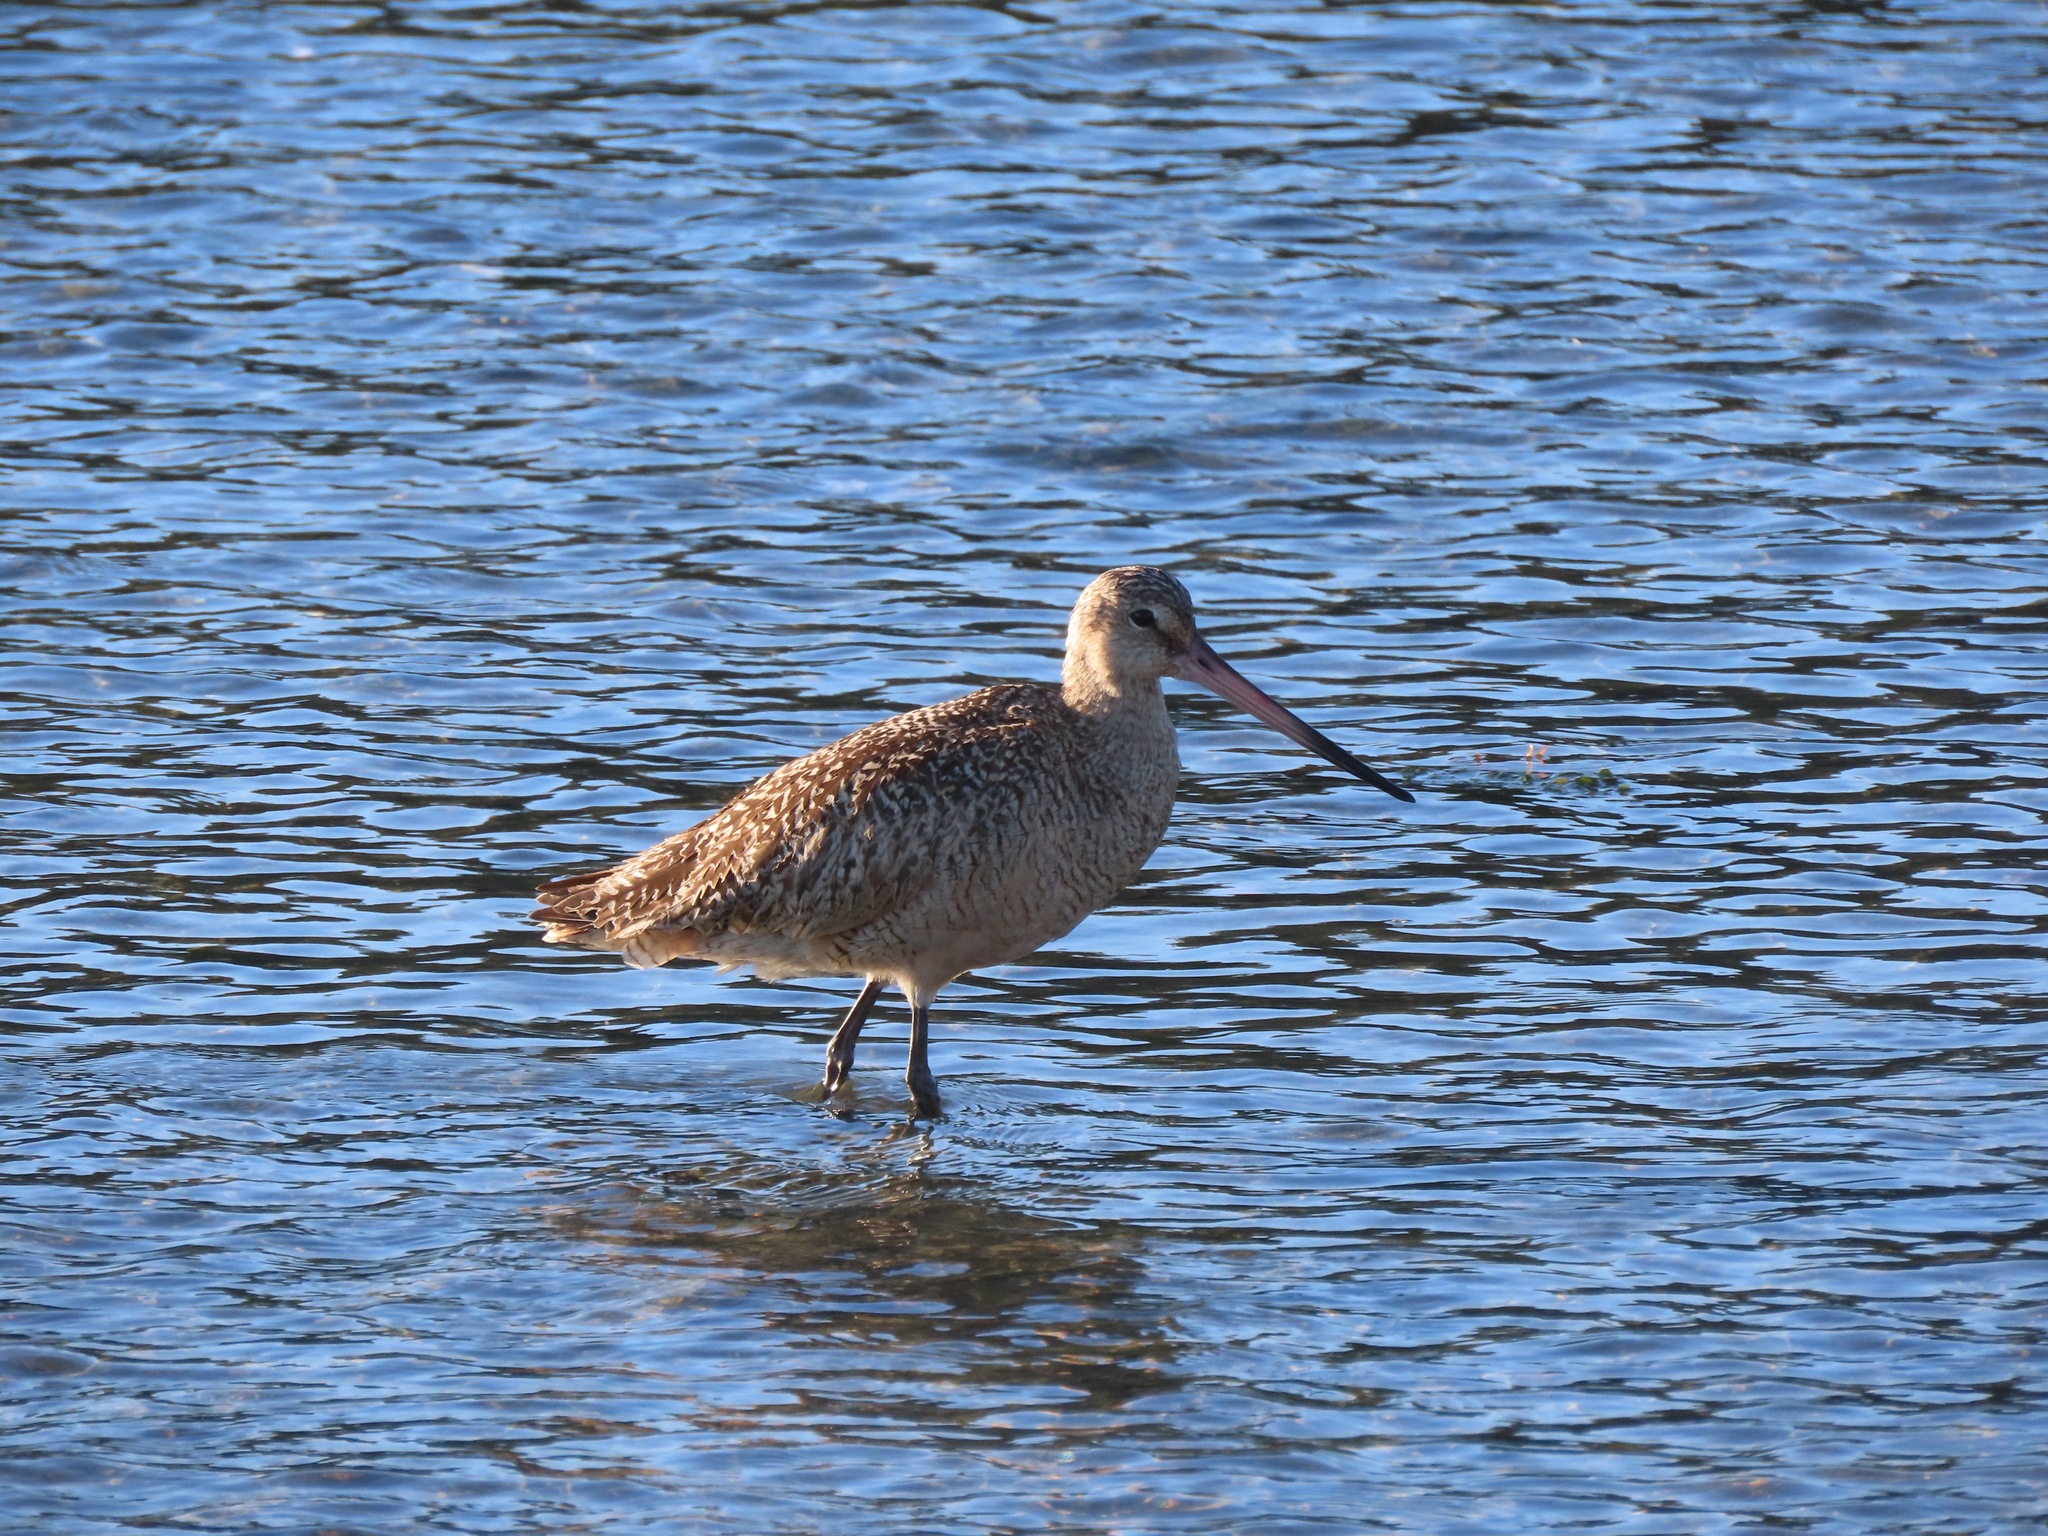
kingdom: Animalia
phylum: Chordata
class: Aves
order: Charadriiformes
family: Scolopacidae
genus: Limosa
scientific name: Limosa fedoa
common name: Marbled godwit
